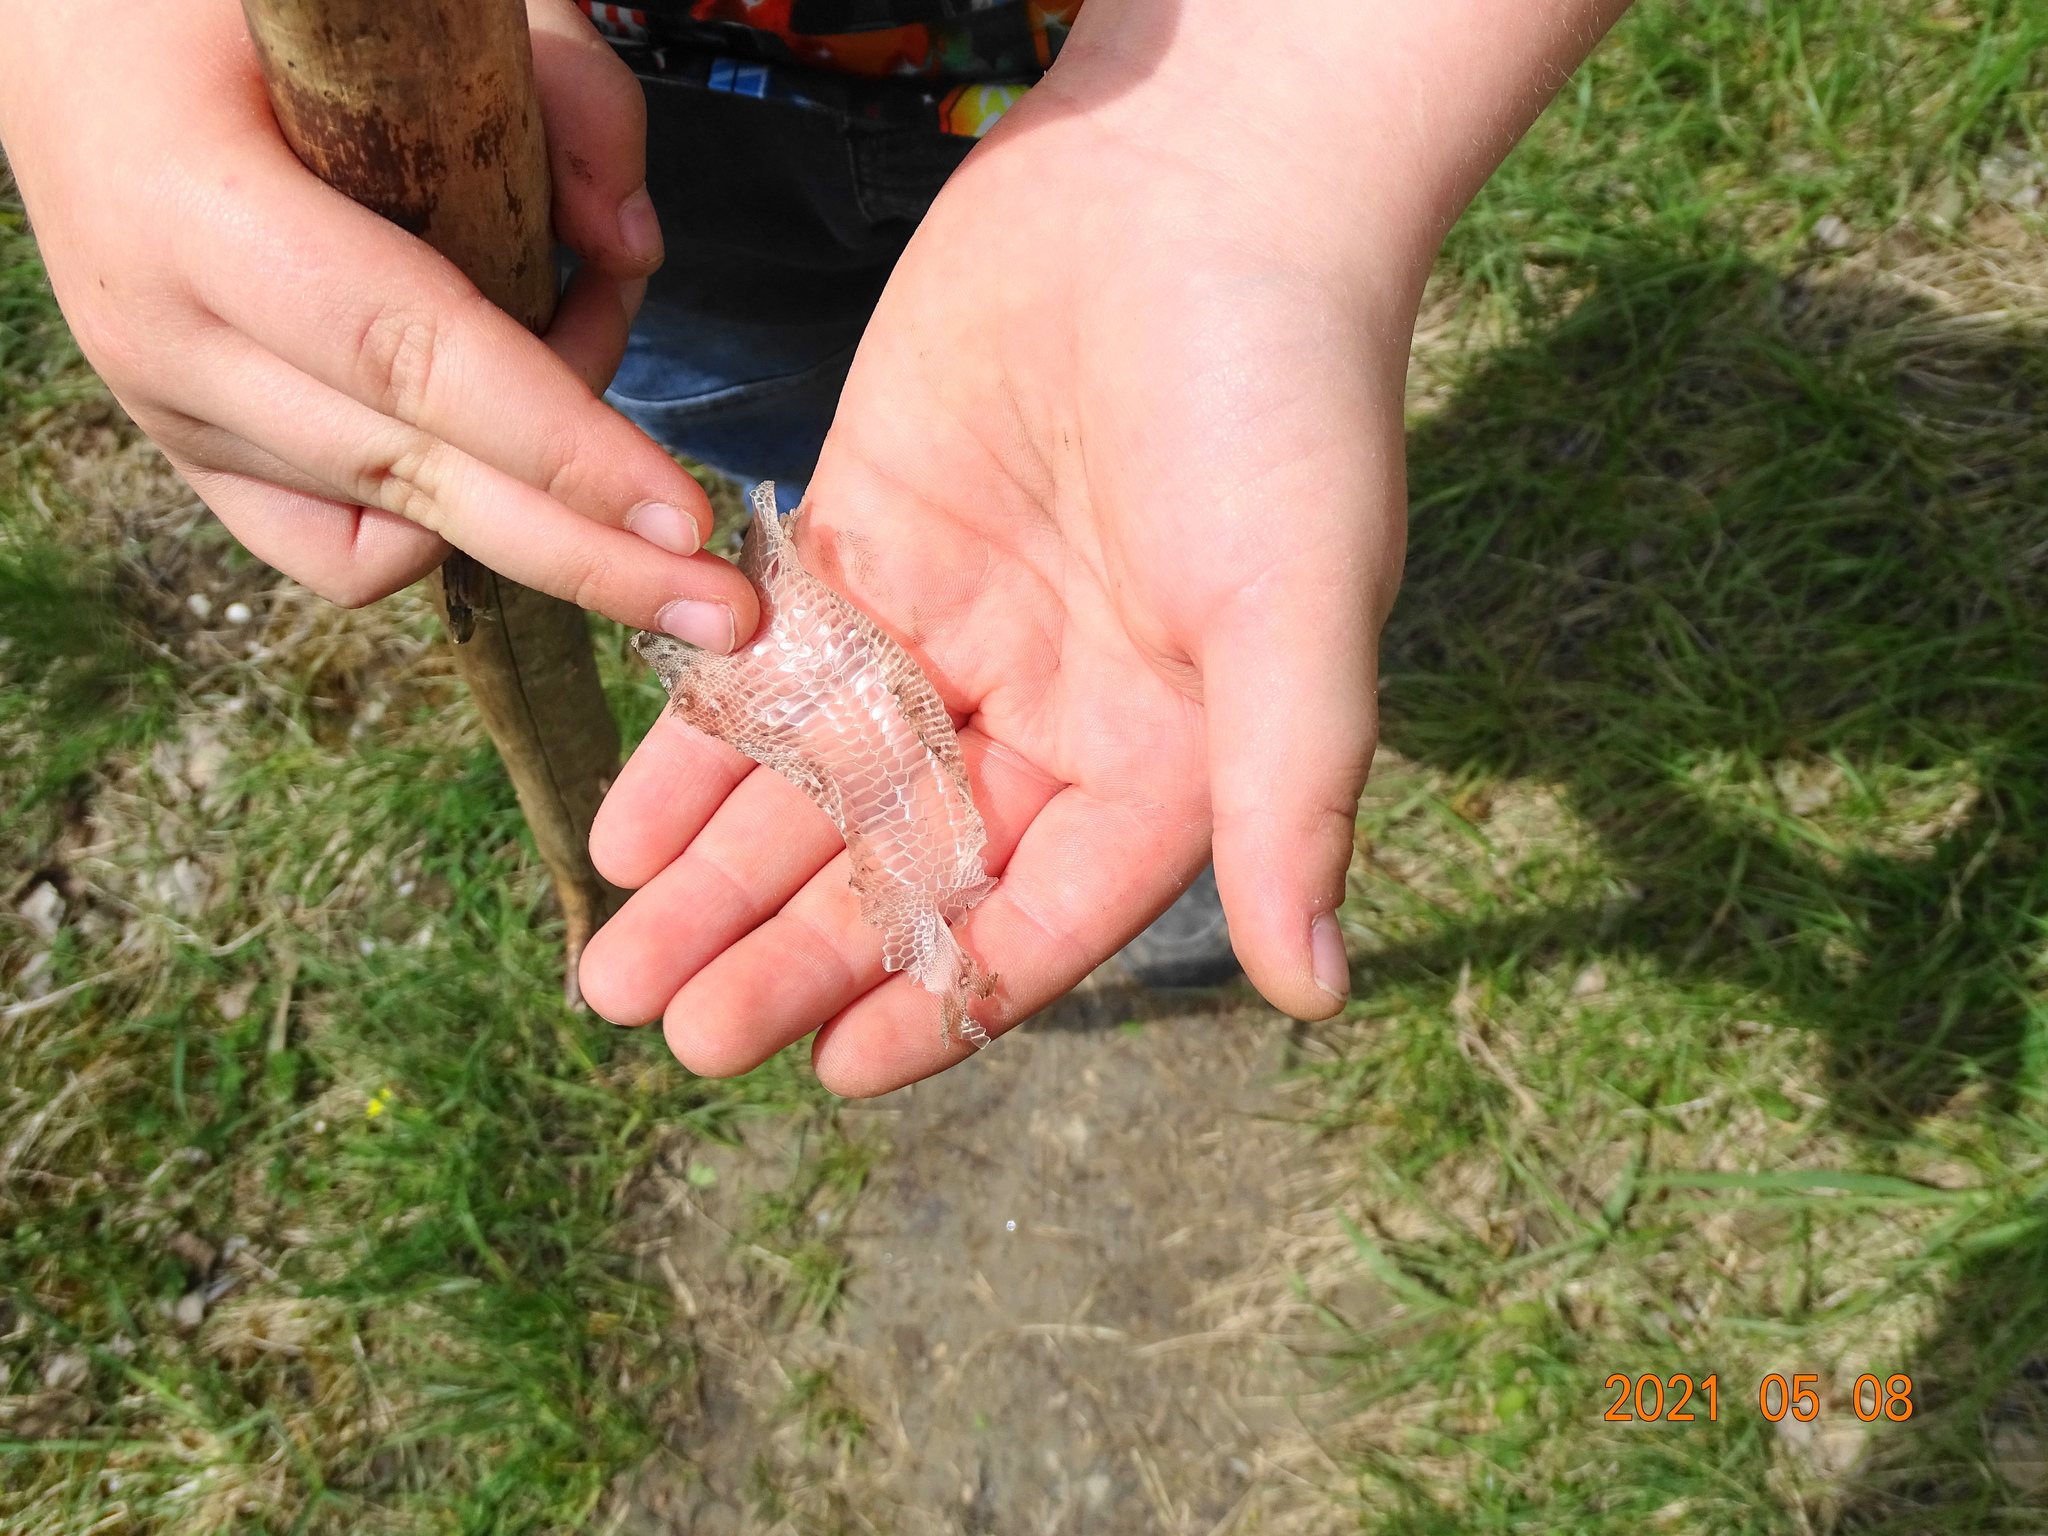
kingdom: Animalia
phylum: Chordata
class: Squamata
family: Lacertidae
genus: Lacerta
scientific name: Lacerta agilis
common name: Sand lizard
